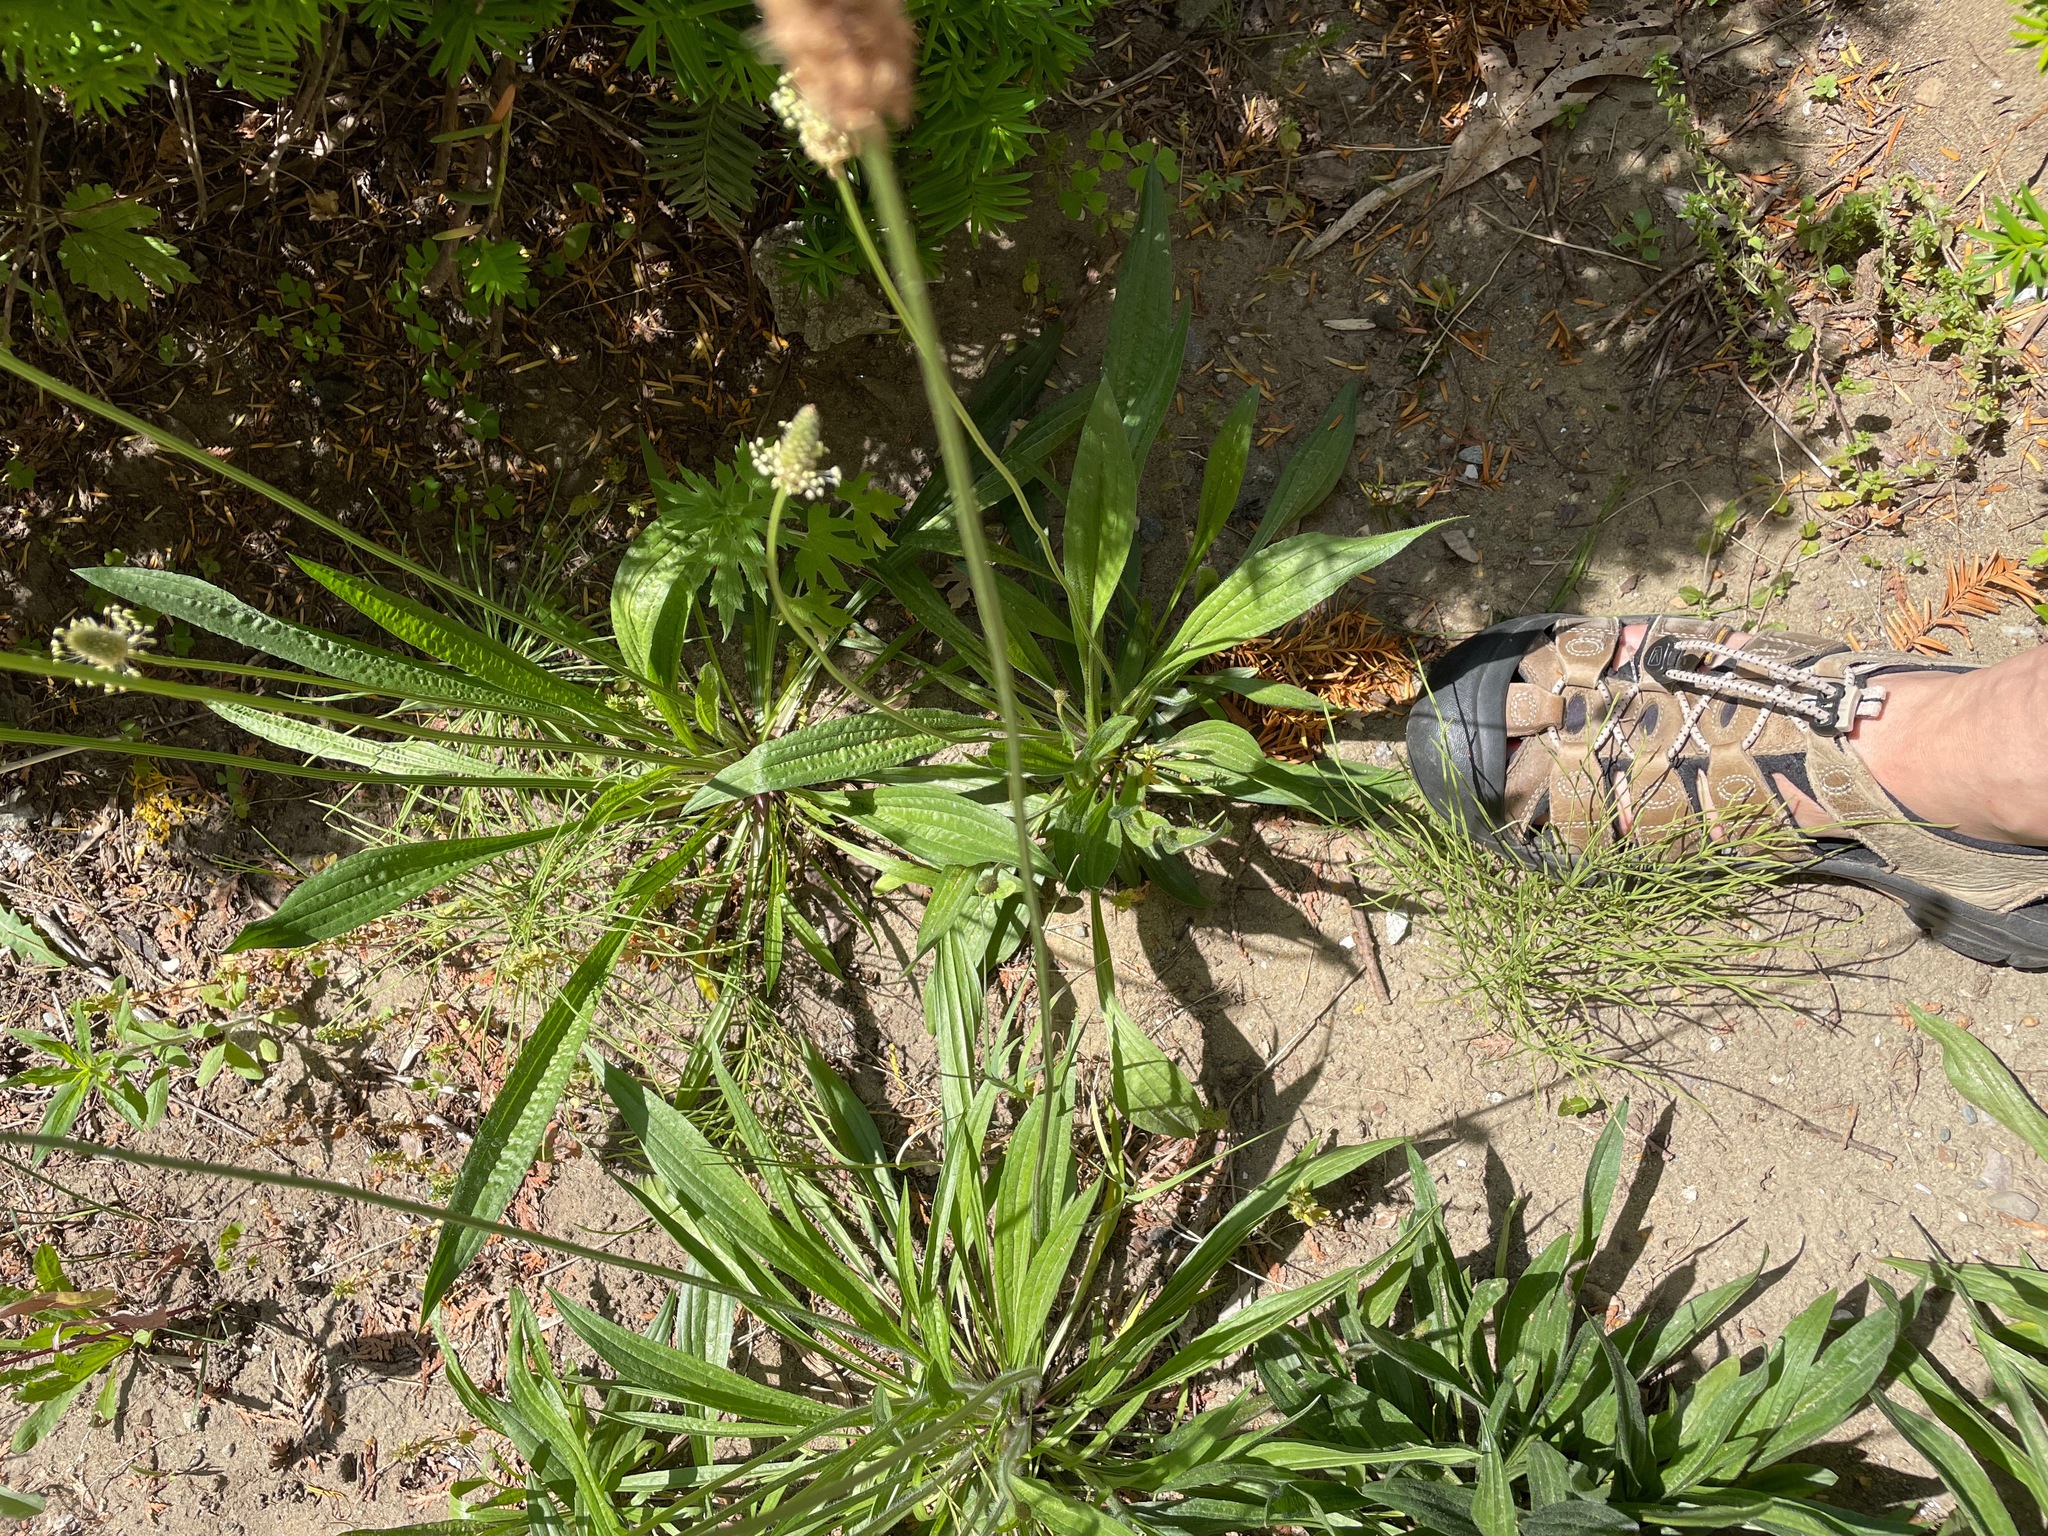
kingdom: Plantae
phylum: Tracheophyta
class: Magnoliopsida
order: Lamiales
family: Plantaginaceae
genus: Plantago
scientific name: Plantago lanceolata
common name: Ribwort plantain
